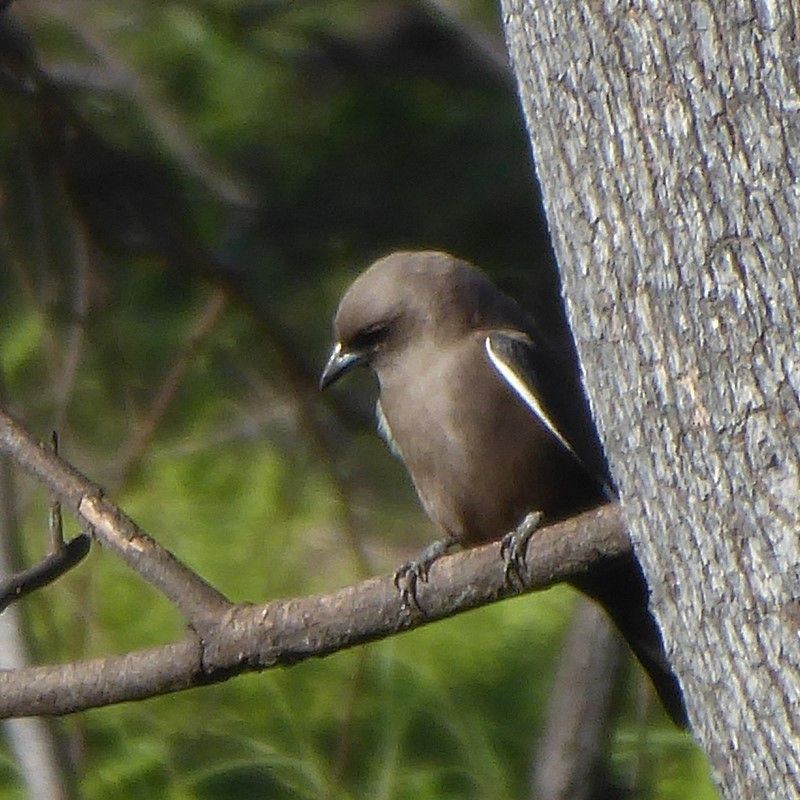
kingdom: Animalia
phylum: Chordata
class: Aves
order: Passeriformes
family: Artamidae
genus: Artamus
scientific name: Artamus cyanopterus
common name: Dusky woodswallow
